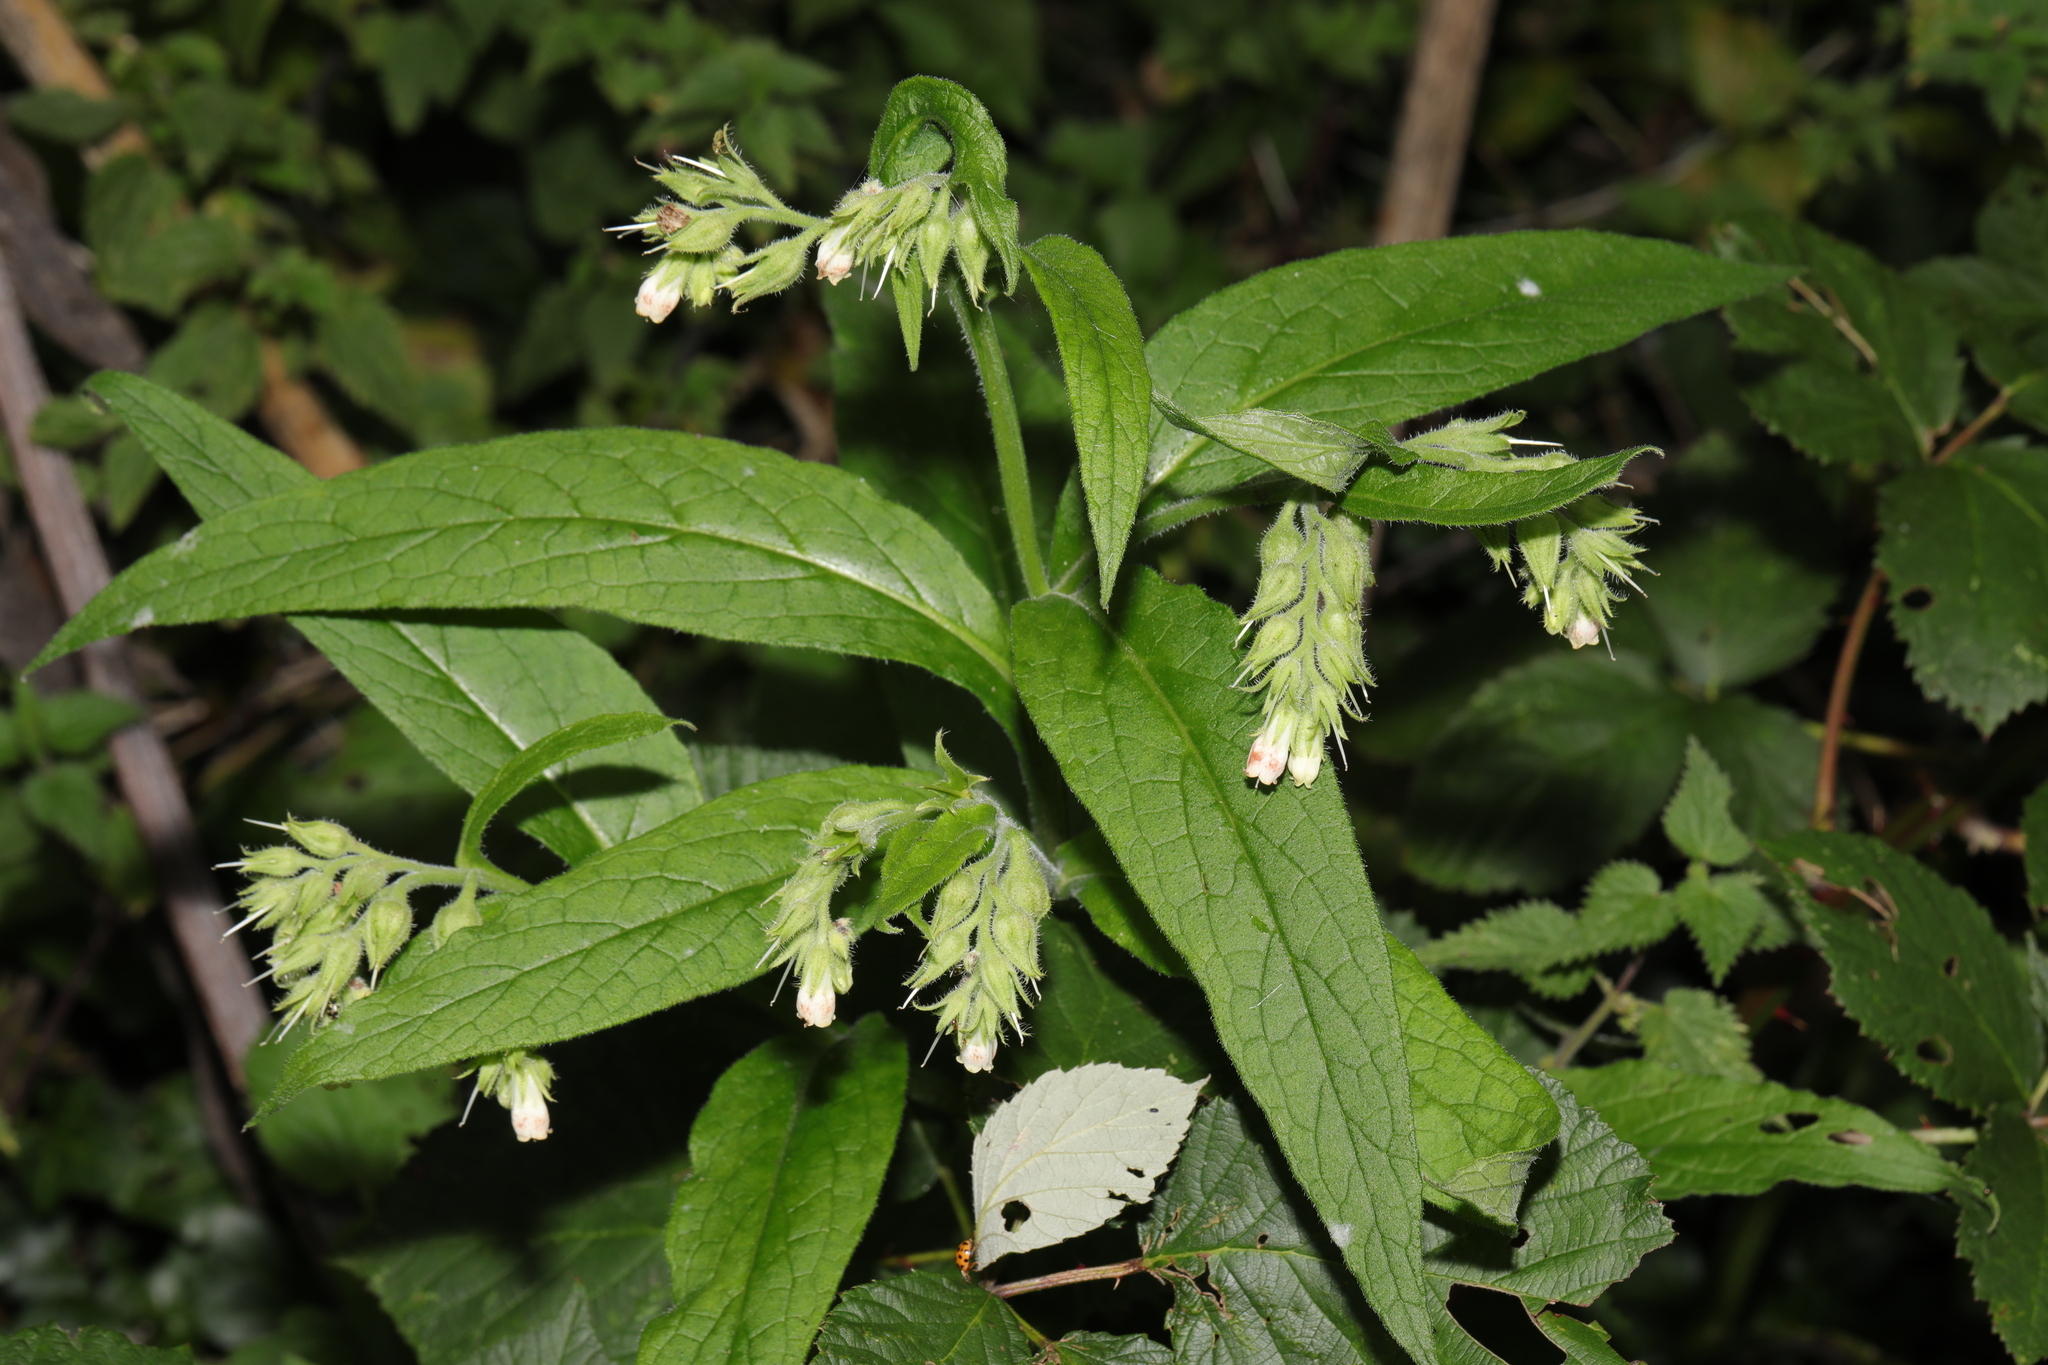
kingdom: Plantae
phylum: Tracheophyta
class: Magnoliopsida
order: Boraginales
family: Boraginaceae
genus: Symphytum
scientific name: Symphytum officinale
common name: Common comfrey
